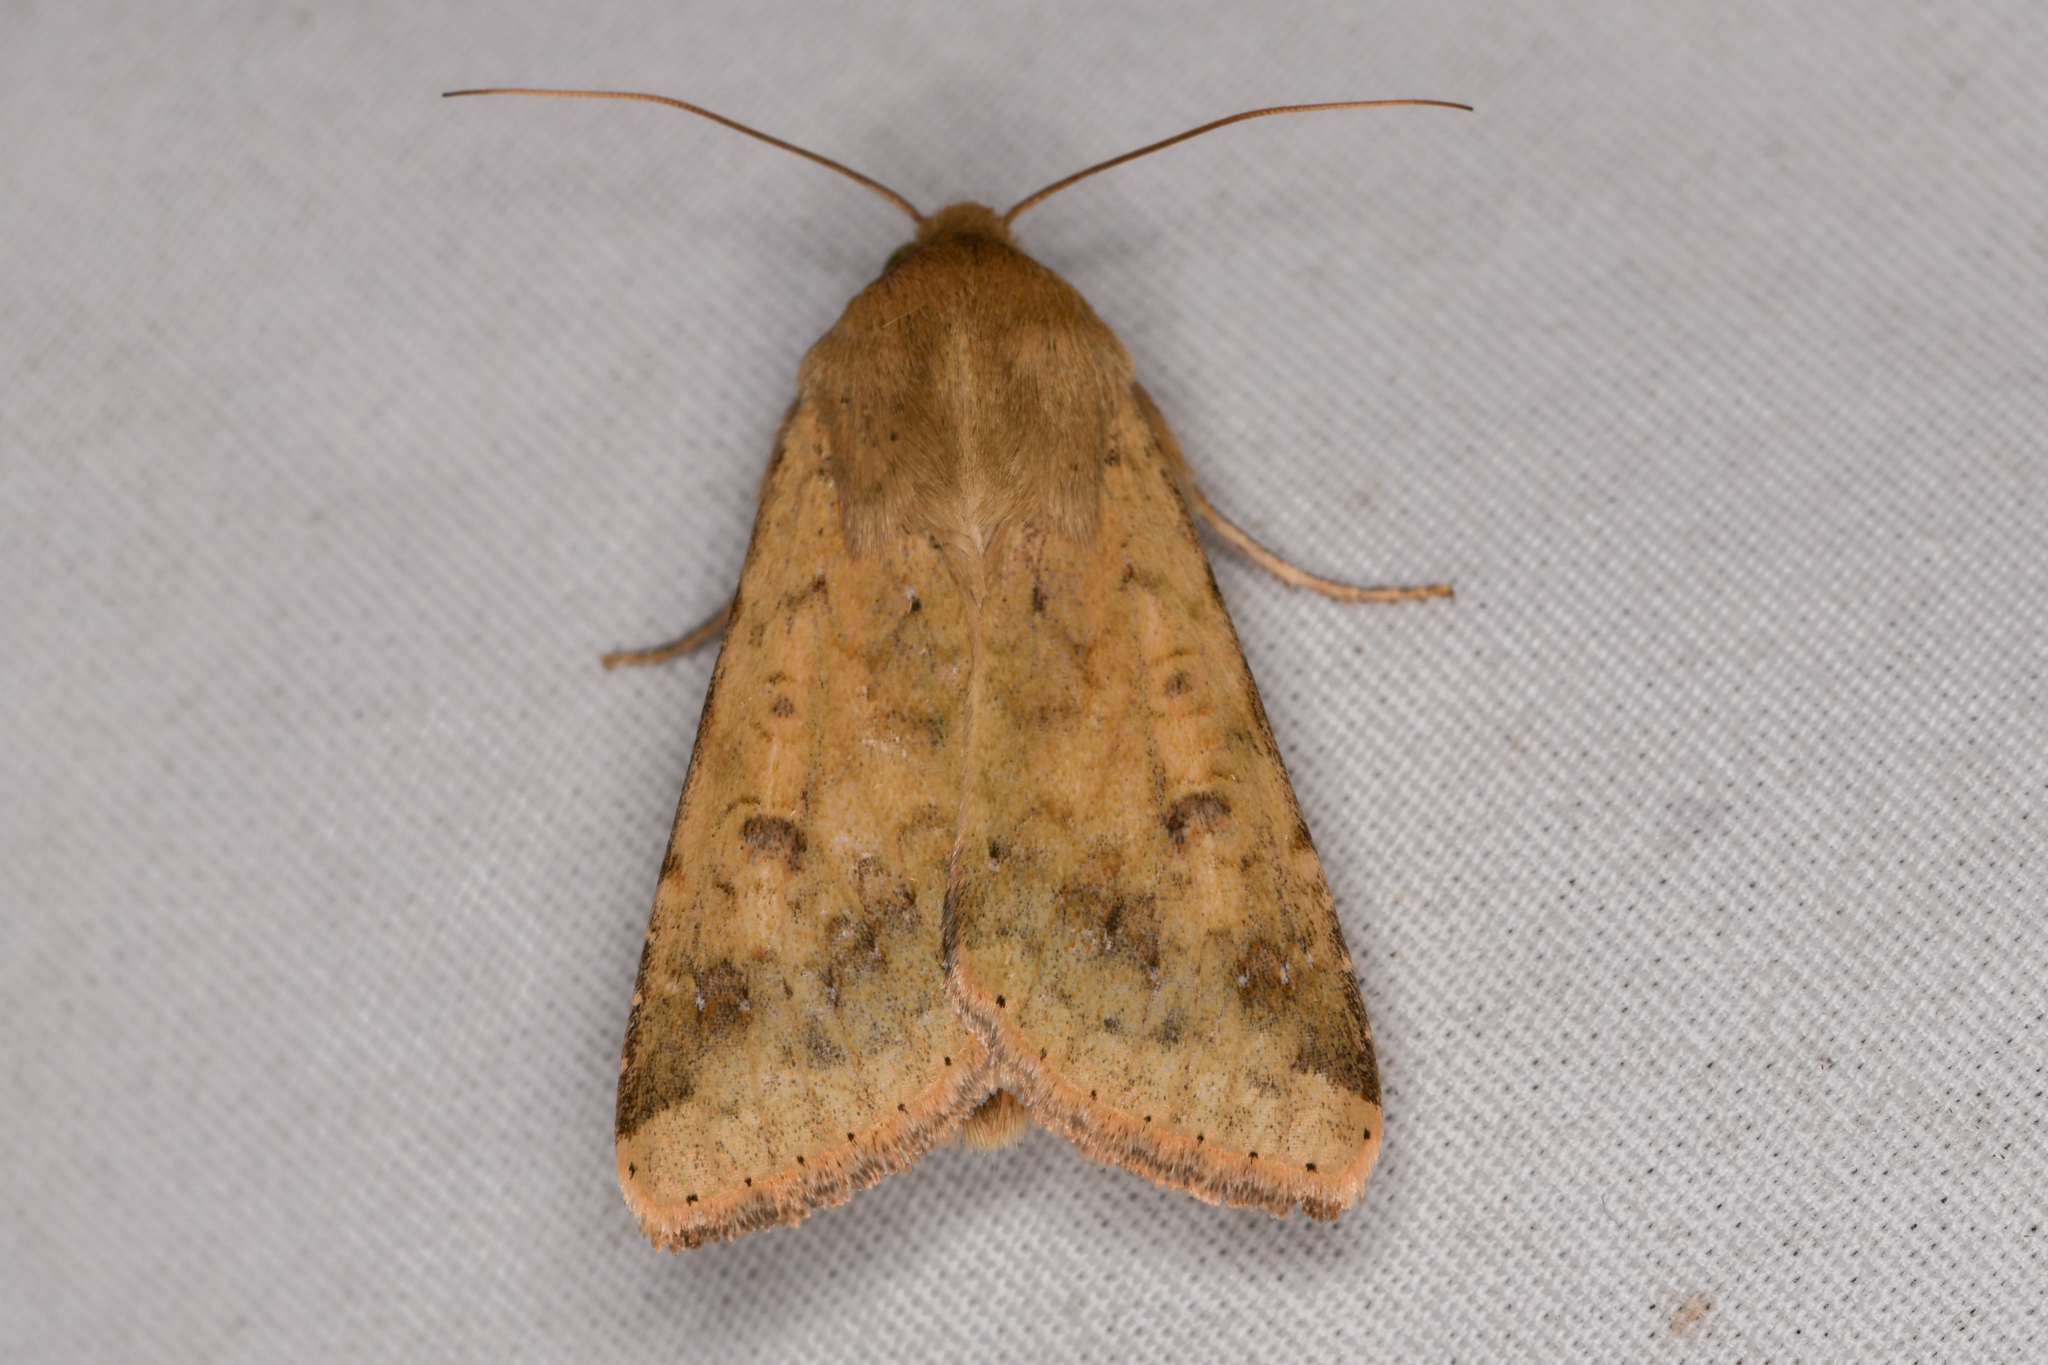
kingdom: Animalia
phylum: Arthropoda
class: Insecta
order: Lepidoptera
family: Noctuidae
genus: Helicoverpa
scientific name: Helicoverpa zea
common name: Bollworm
